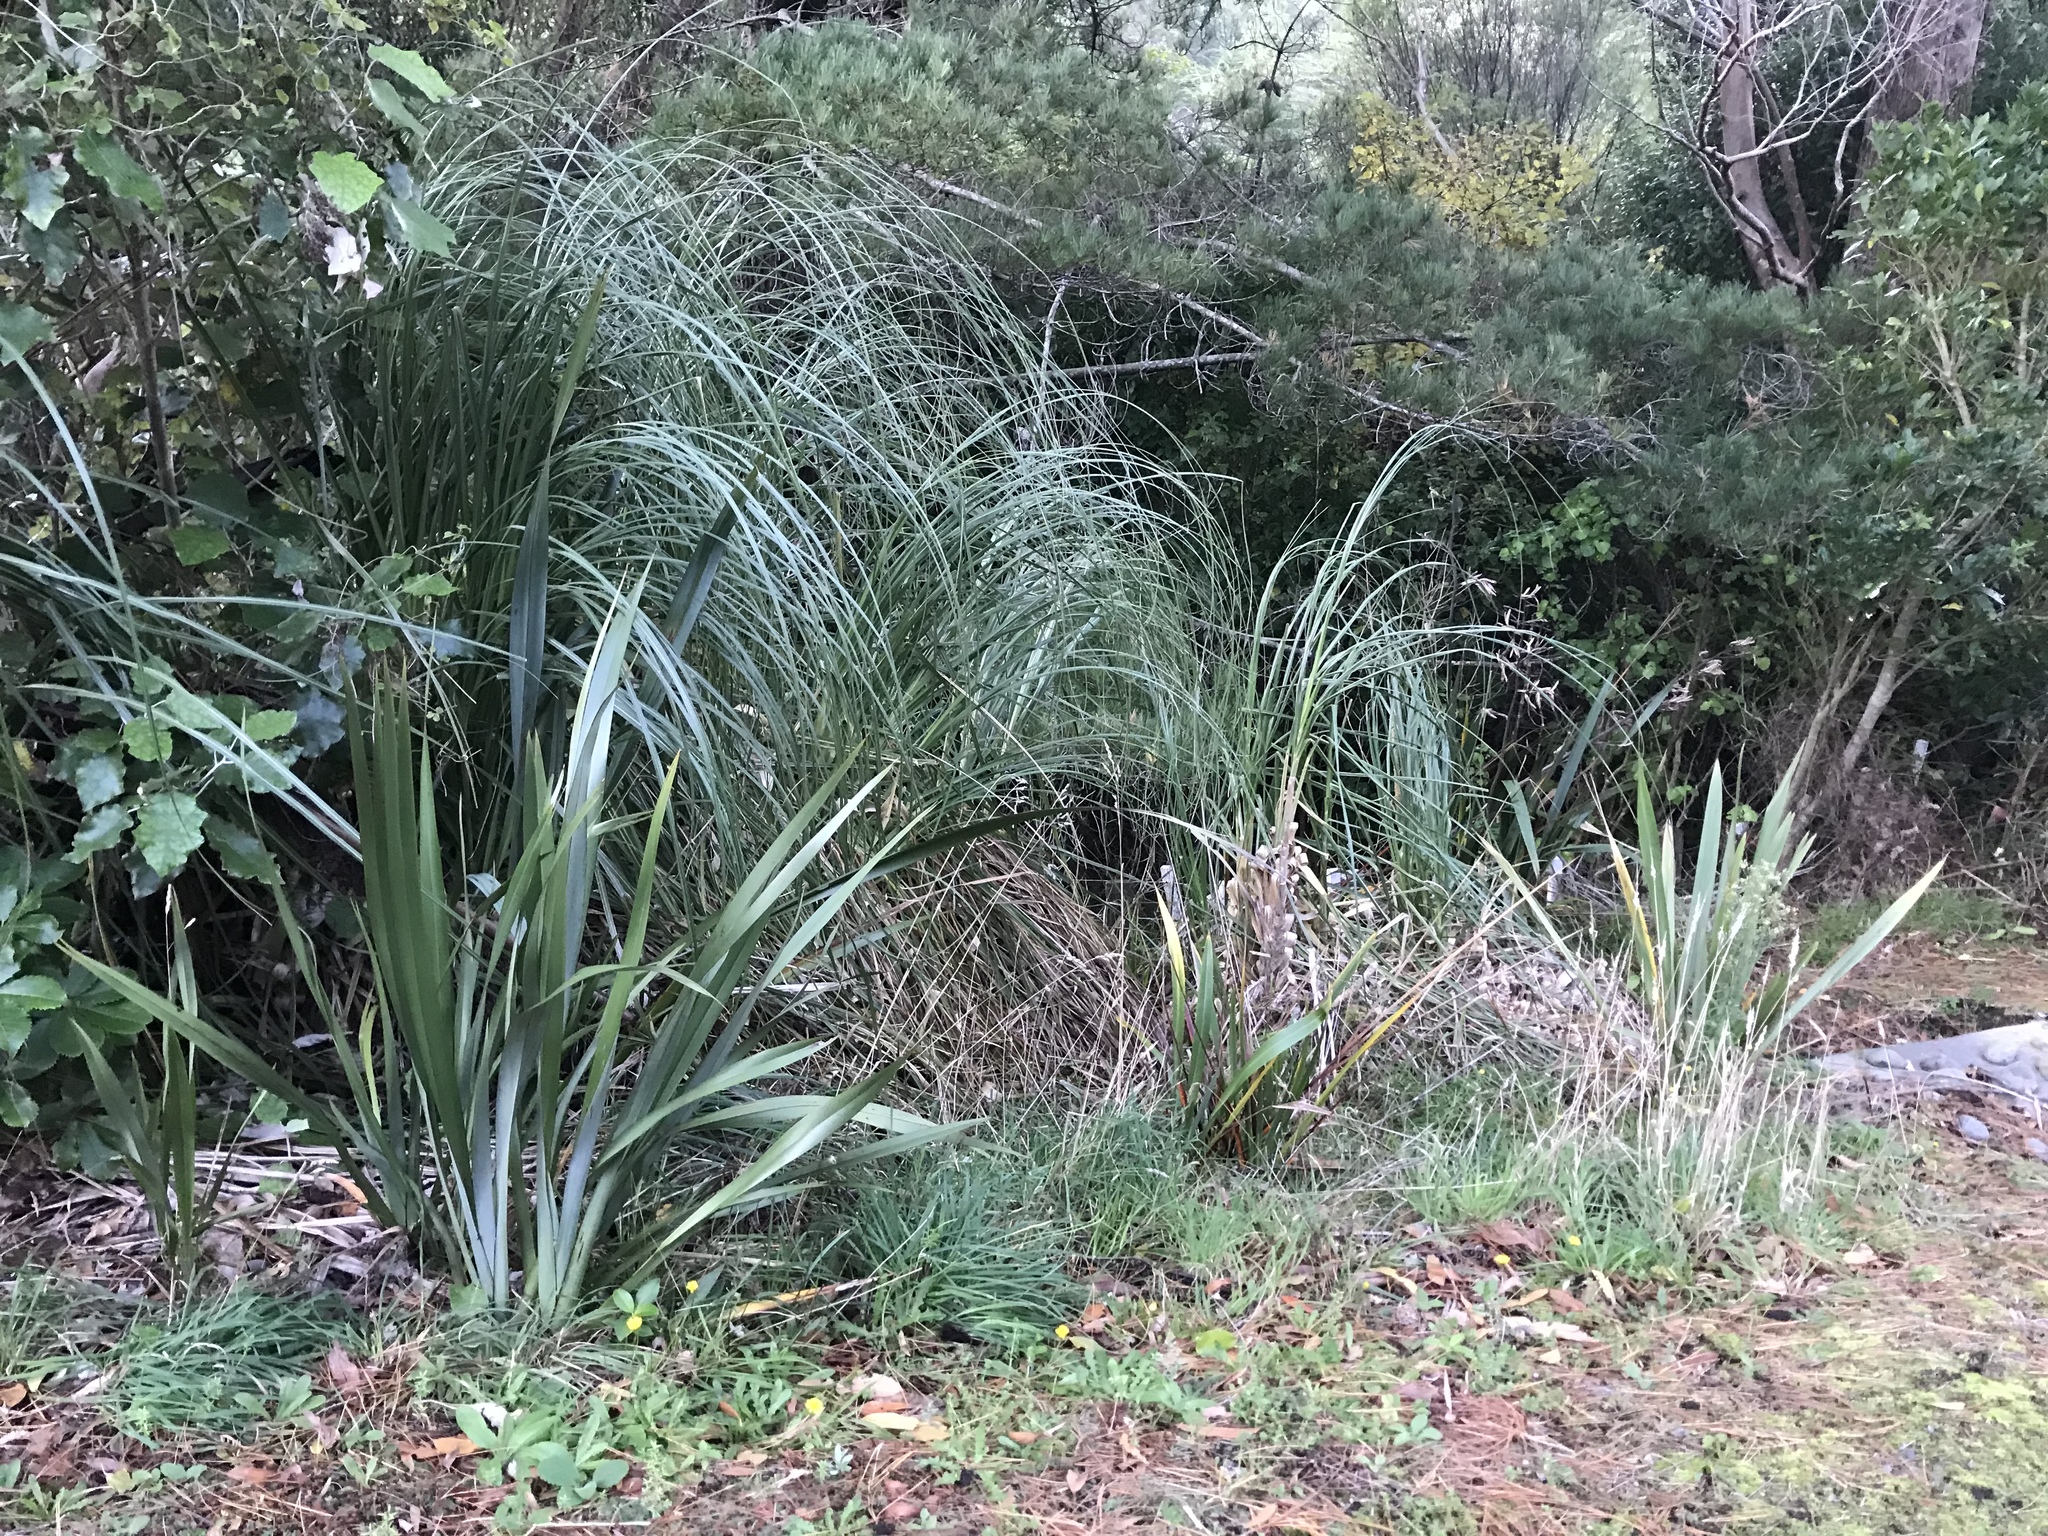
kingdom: Plantae
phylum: Tracheophyta
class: Liliopsida
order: Poales
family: Poaceae
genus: Cortaderia
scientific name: Cortaderia selloana
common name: Uruguayan pampas grass
